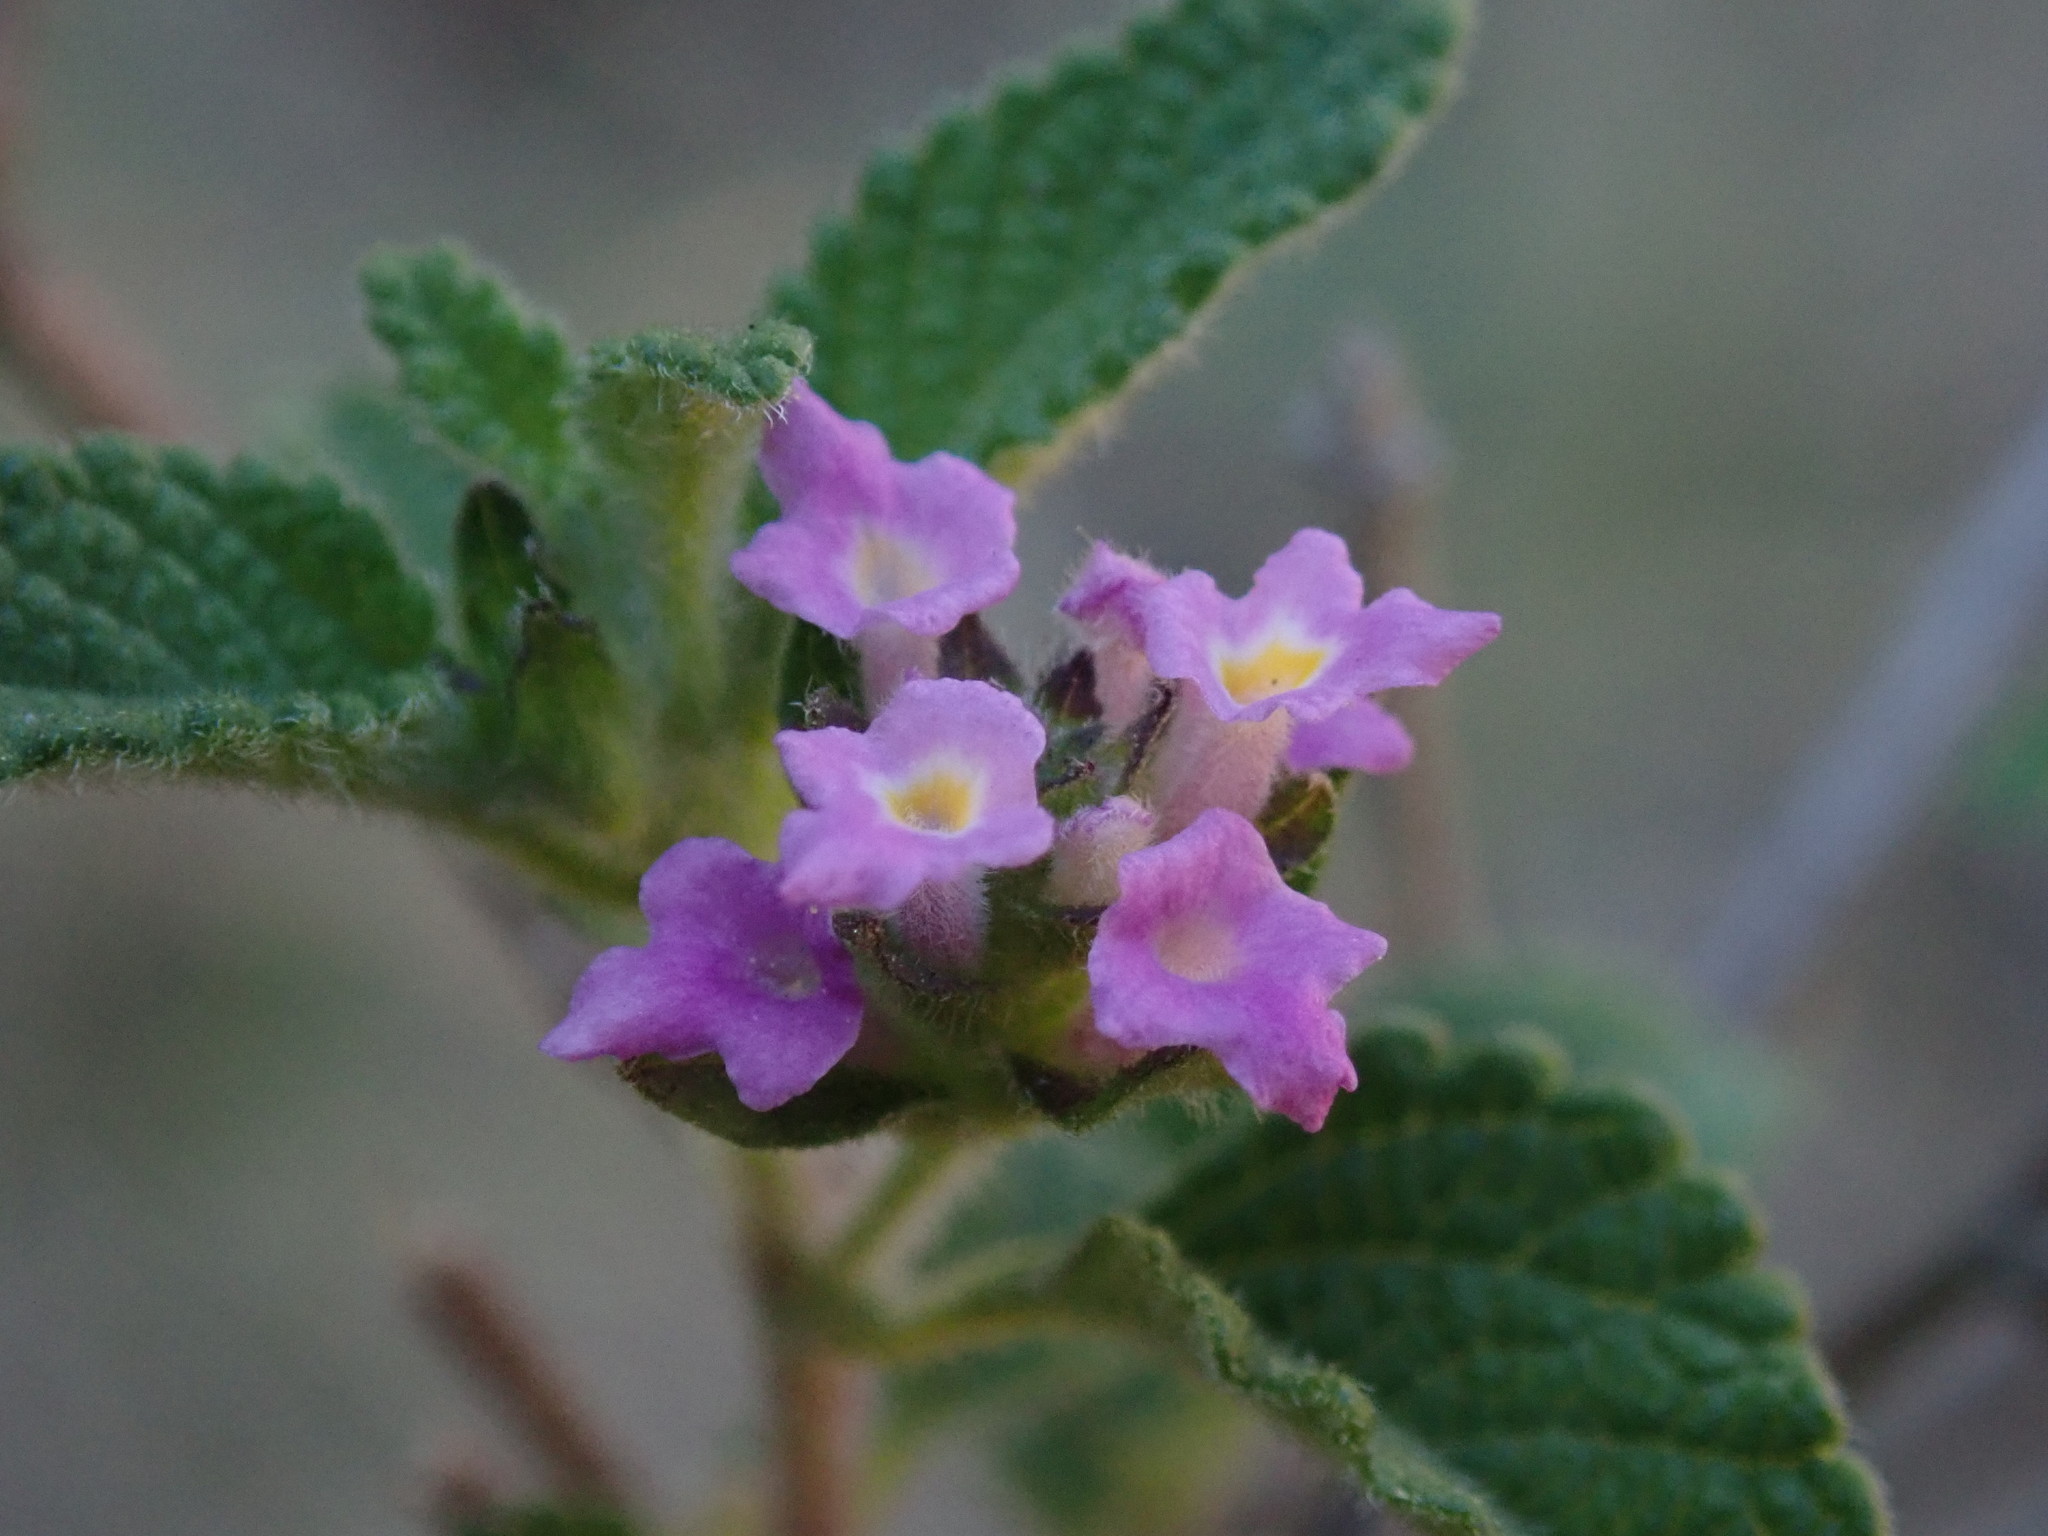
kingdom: Plantae
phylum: Tracheophyta
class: Magnoliopsida
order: Lamiales
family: Verbenaceae
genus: Lantana
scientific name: Lantana rugosa
